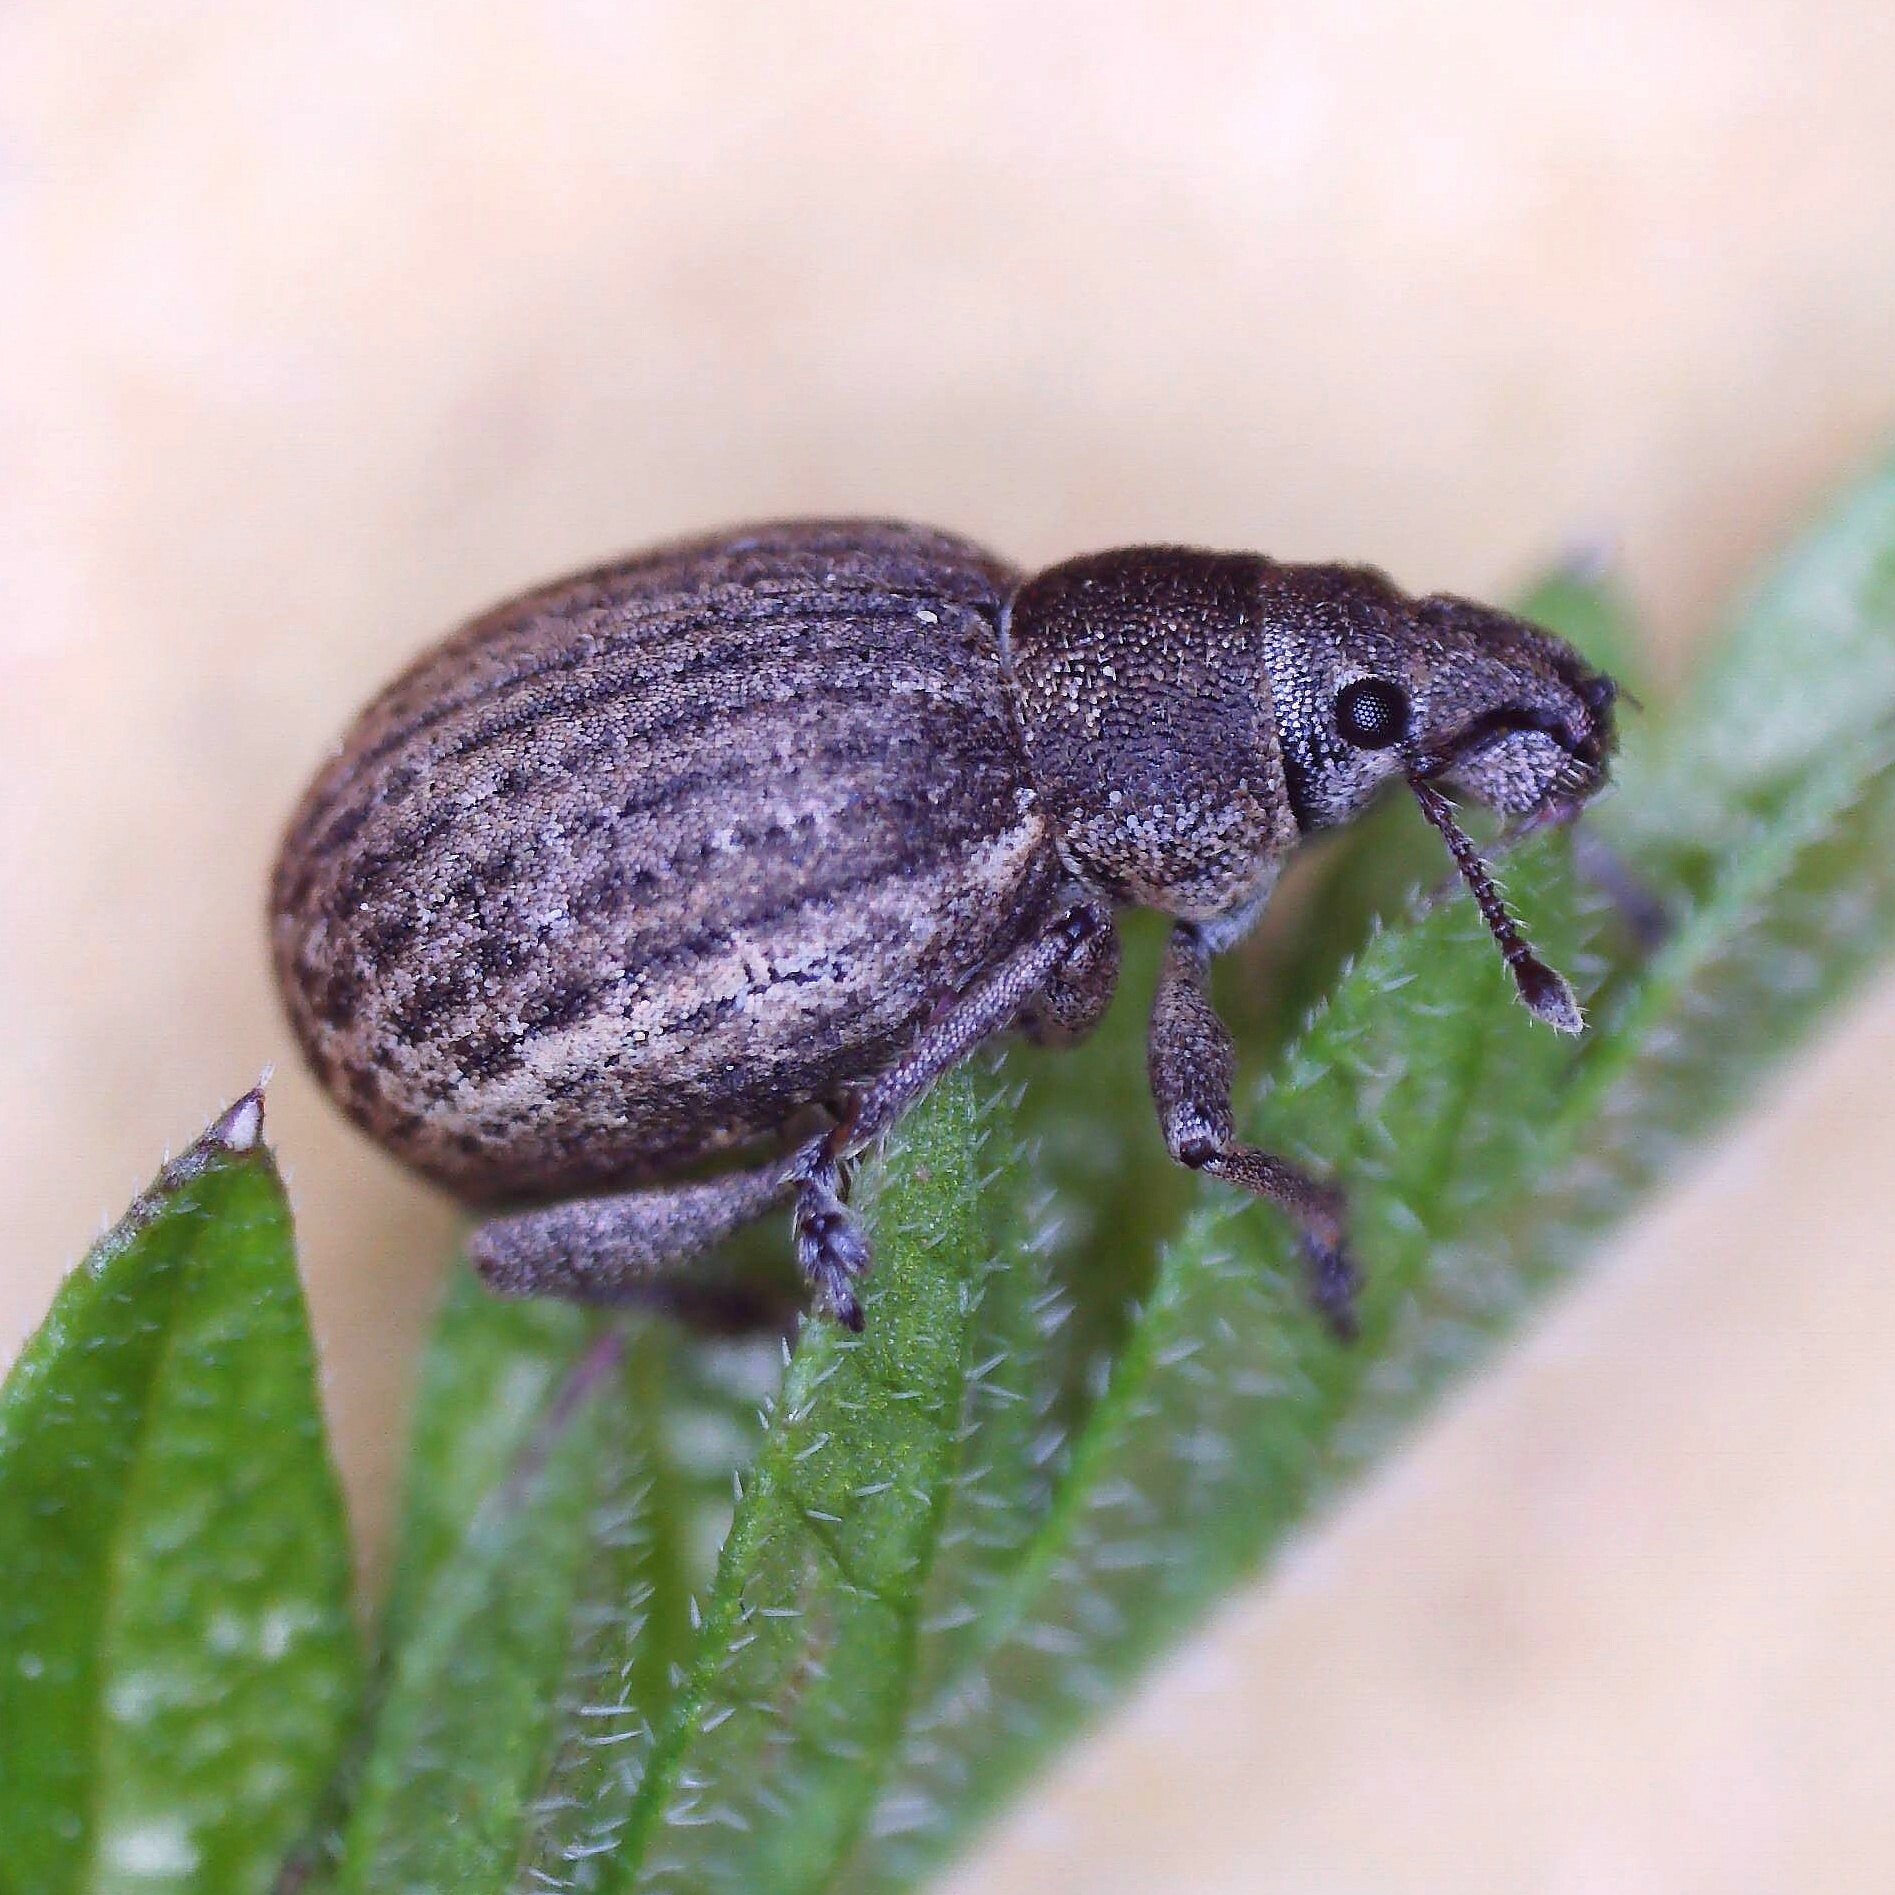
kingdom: Animalia
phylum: Arthropoda
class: Insecta
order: Coleoptera
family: Curculionidae
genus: Attactagenus
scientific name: Attactagenus plumbeus
